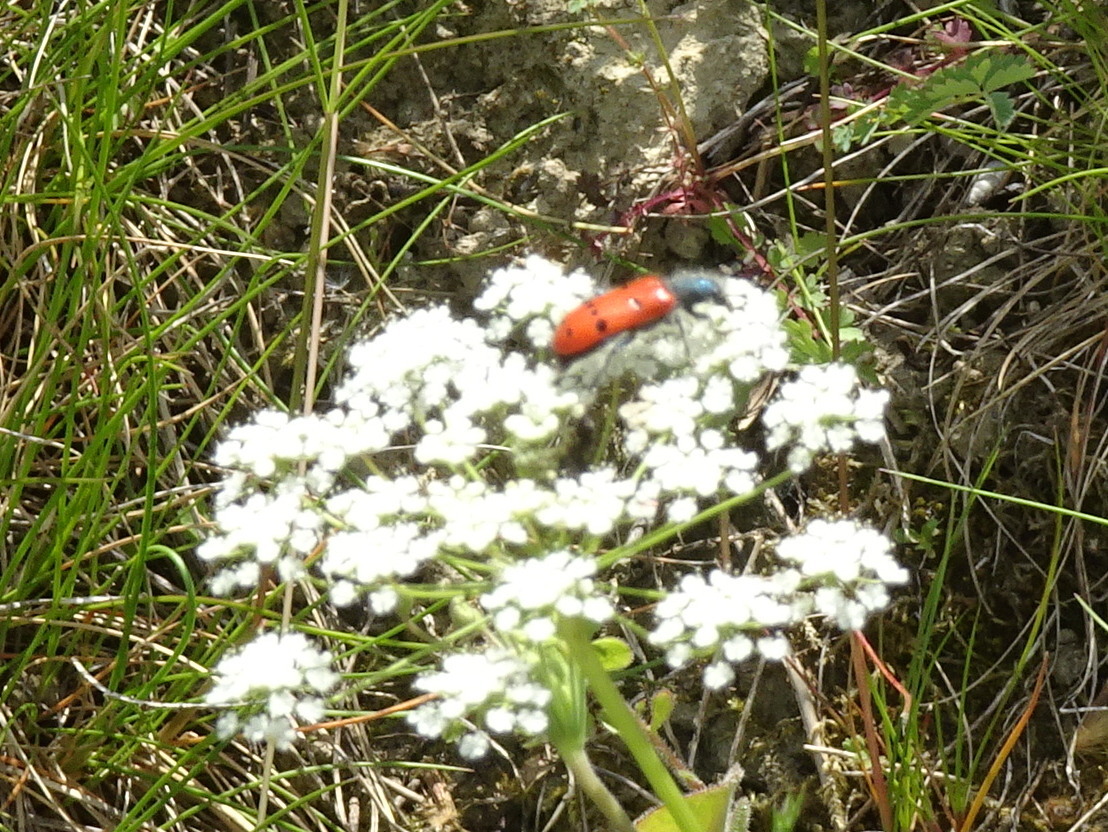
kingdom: Animalia
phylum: Arthropoda
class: Insecta
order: Coleoptera
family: Cleridae
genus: Trichodes
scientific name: Trichodes octopunctatus
